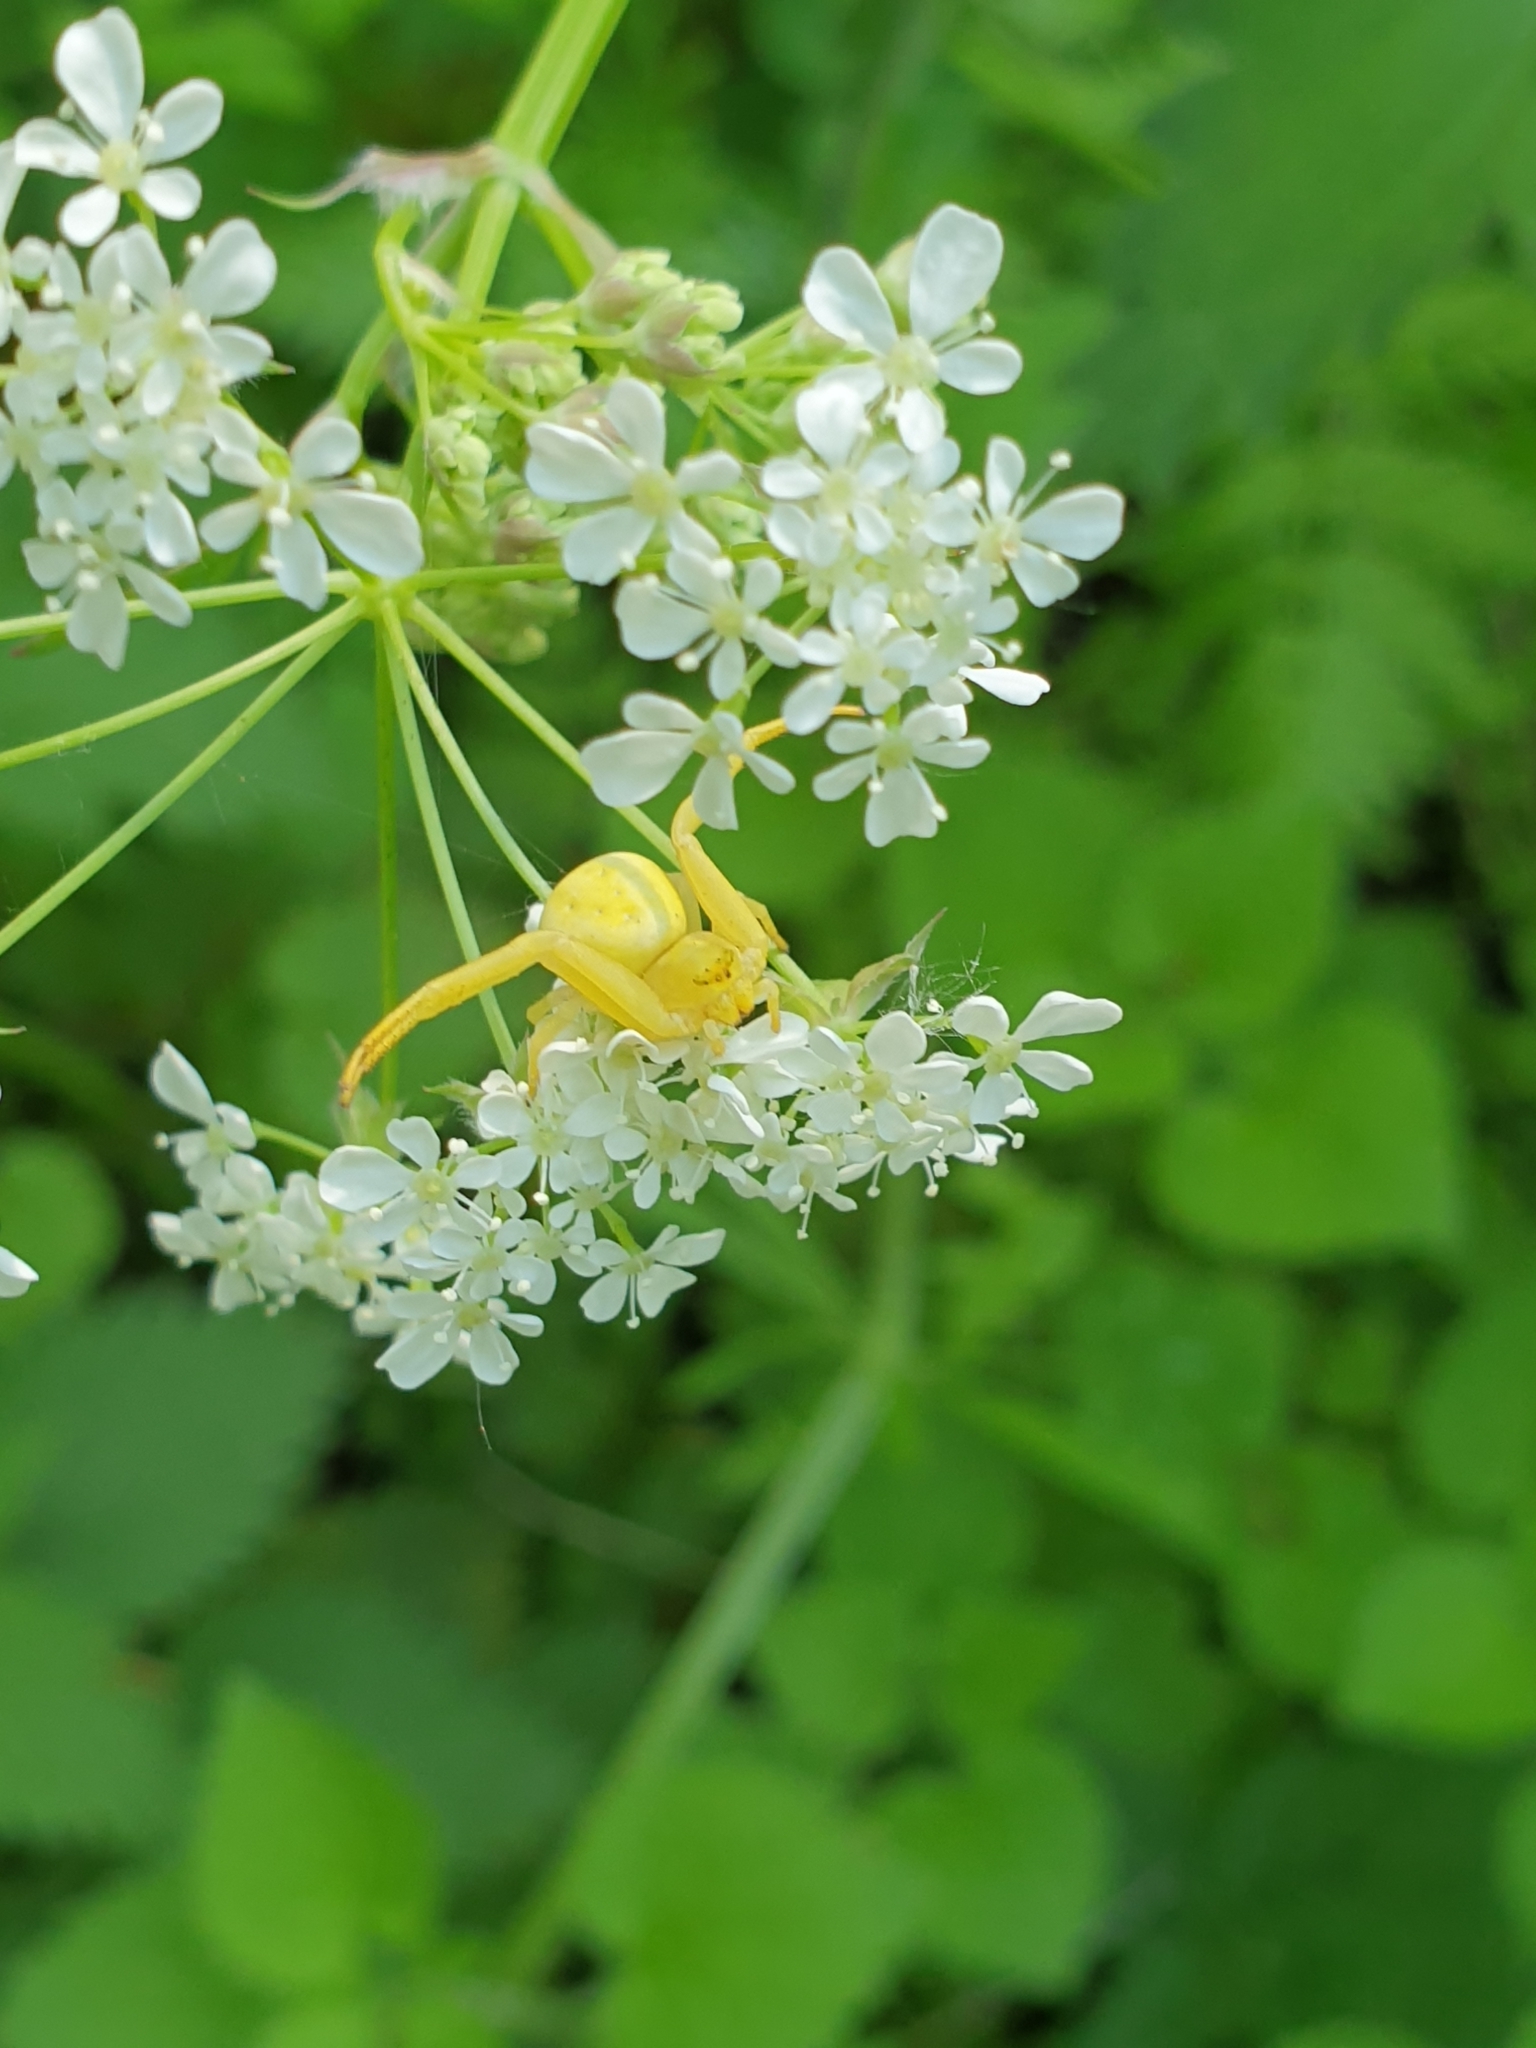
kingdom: Animalia
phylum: Arthropoda
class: Arachnida
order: Araneae
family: Thomisidae
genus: Misumena
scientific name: Misumena vatia
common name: Goldenrod crab spider
